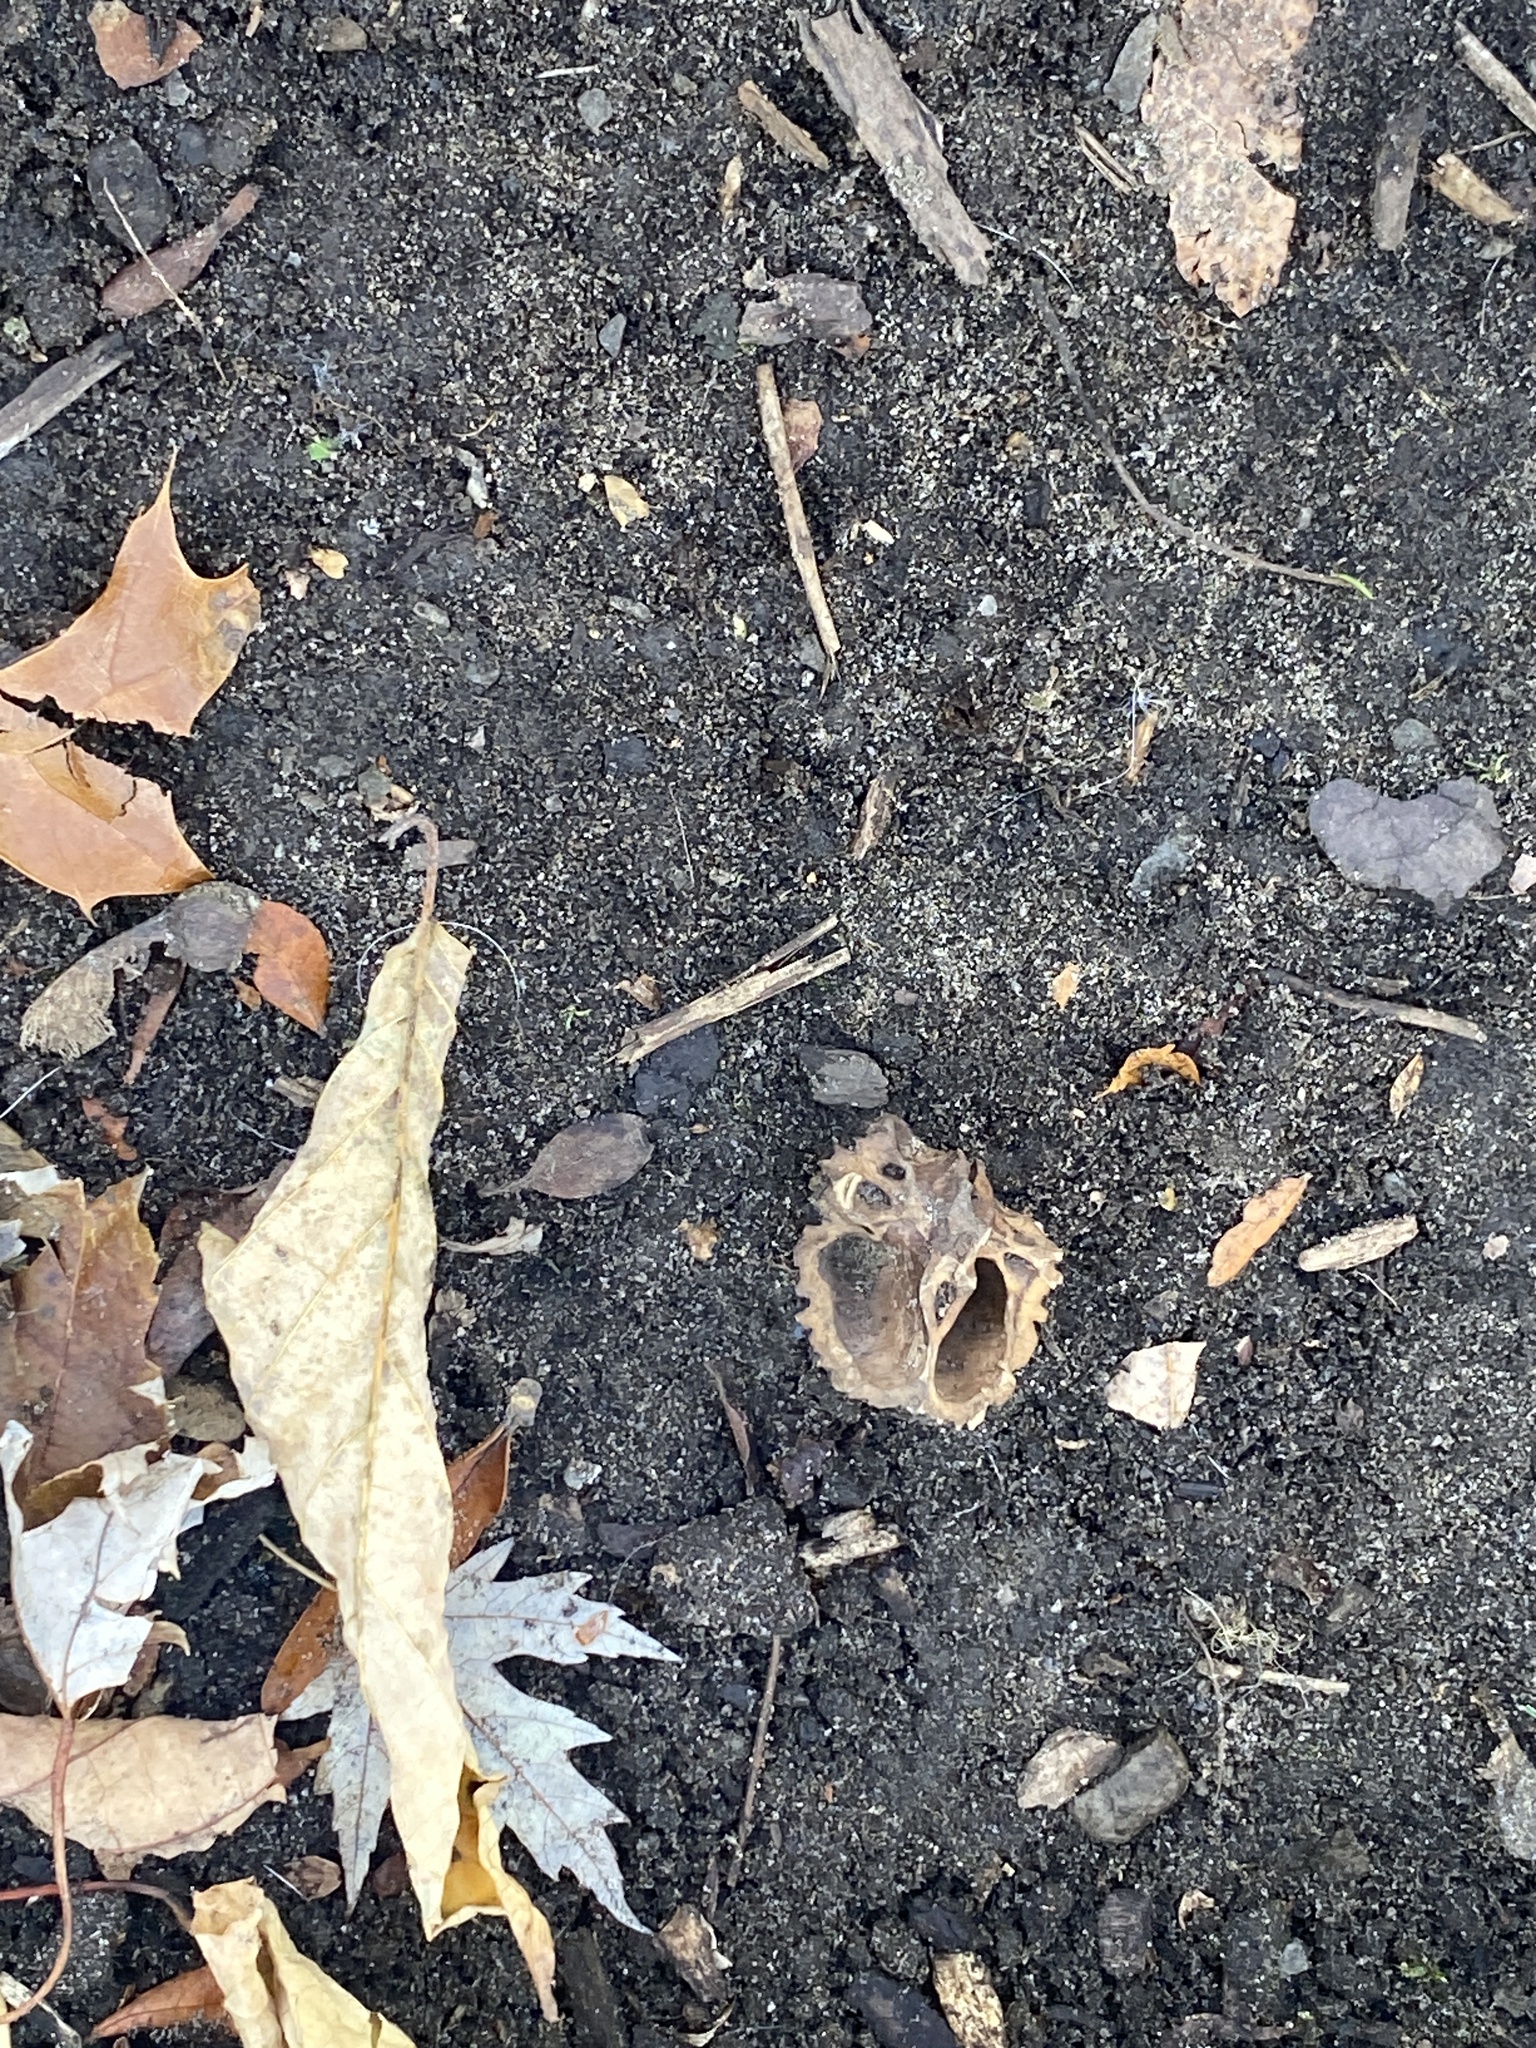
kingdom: Plantae
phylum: Tracheophyta
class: Magnoliopsida
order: Fagales
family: Juglandaceae
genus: Juglans
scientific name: Juglans nigra
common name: Black walnut
